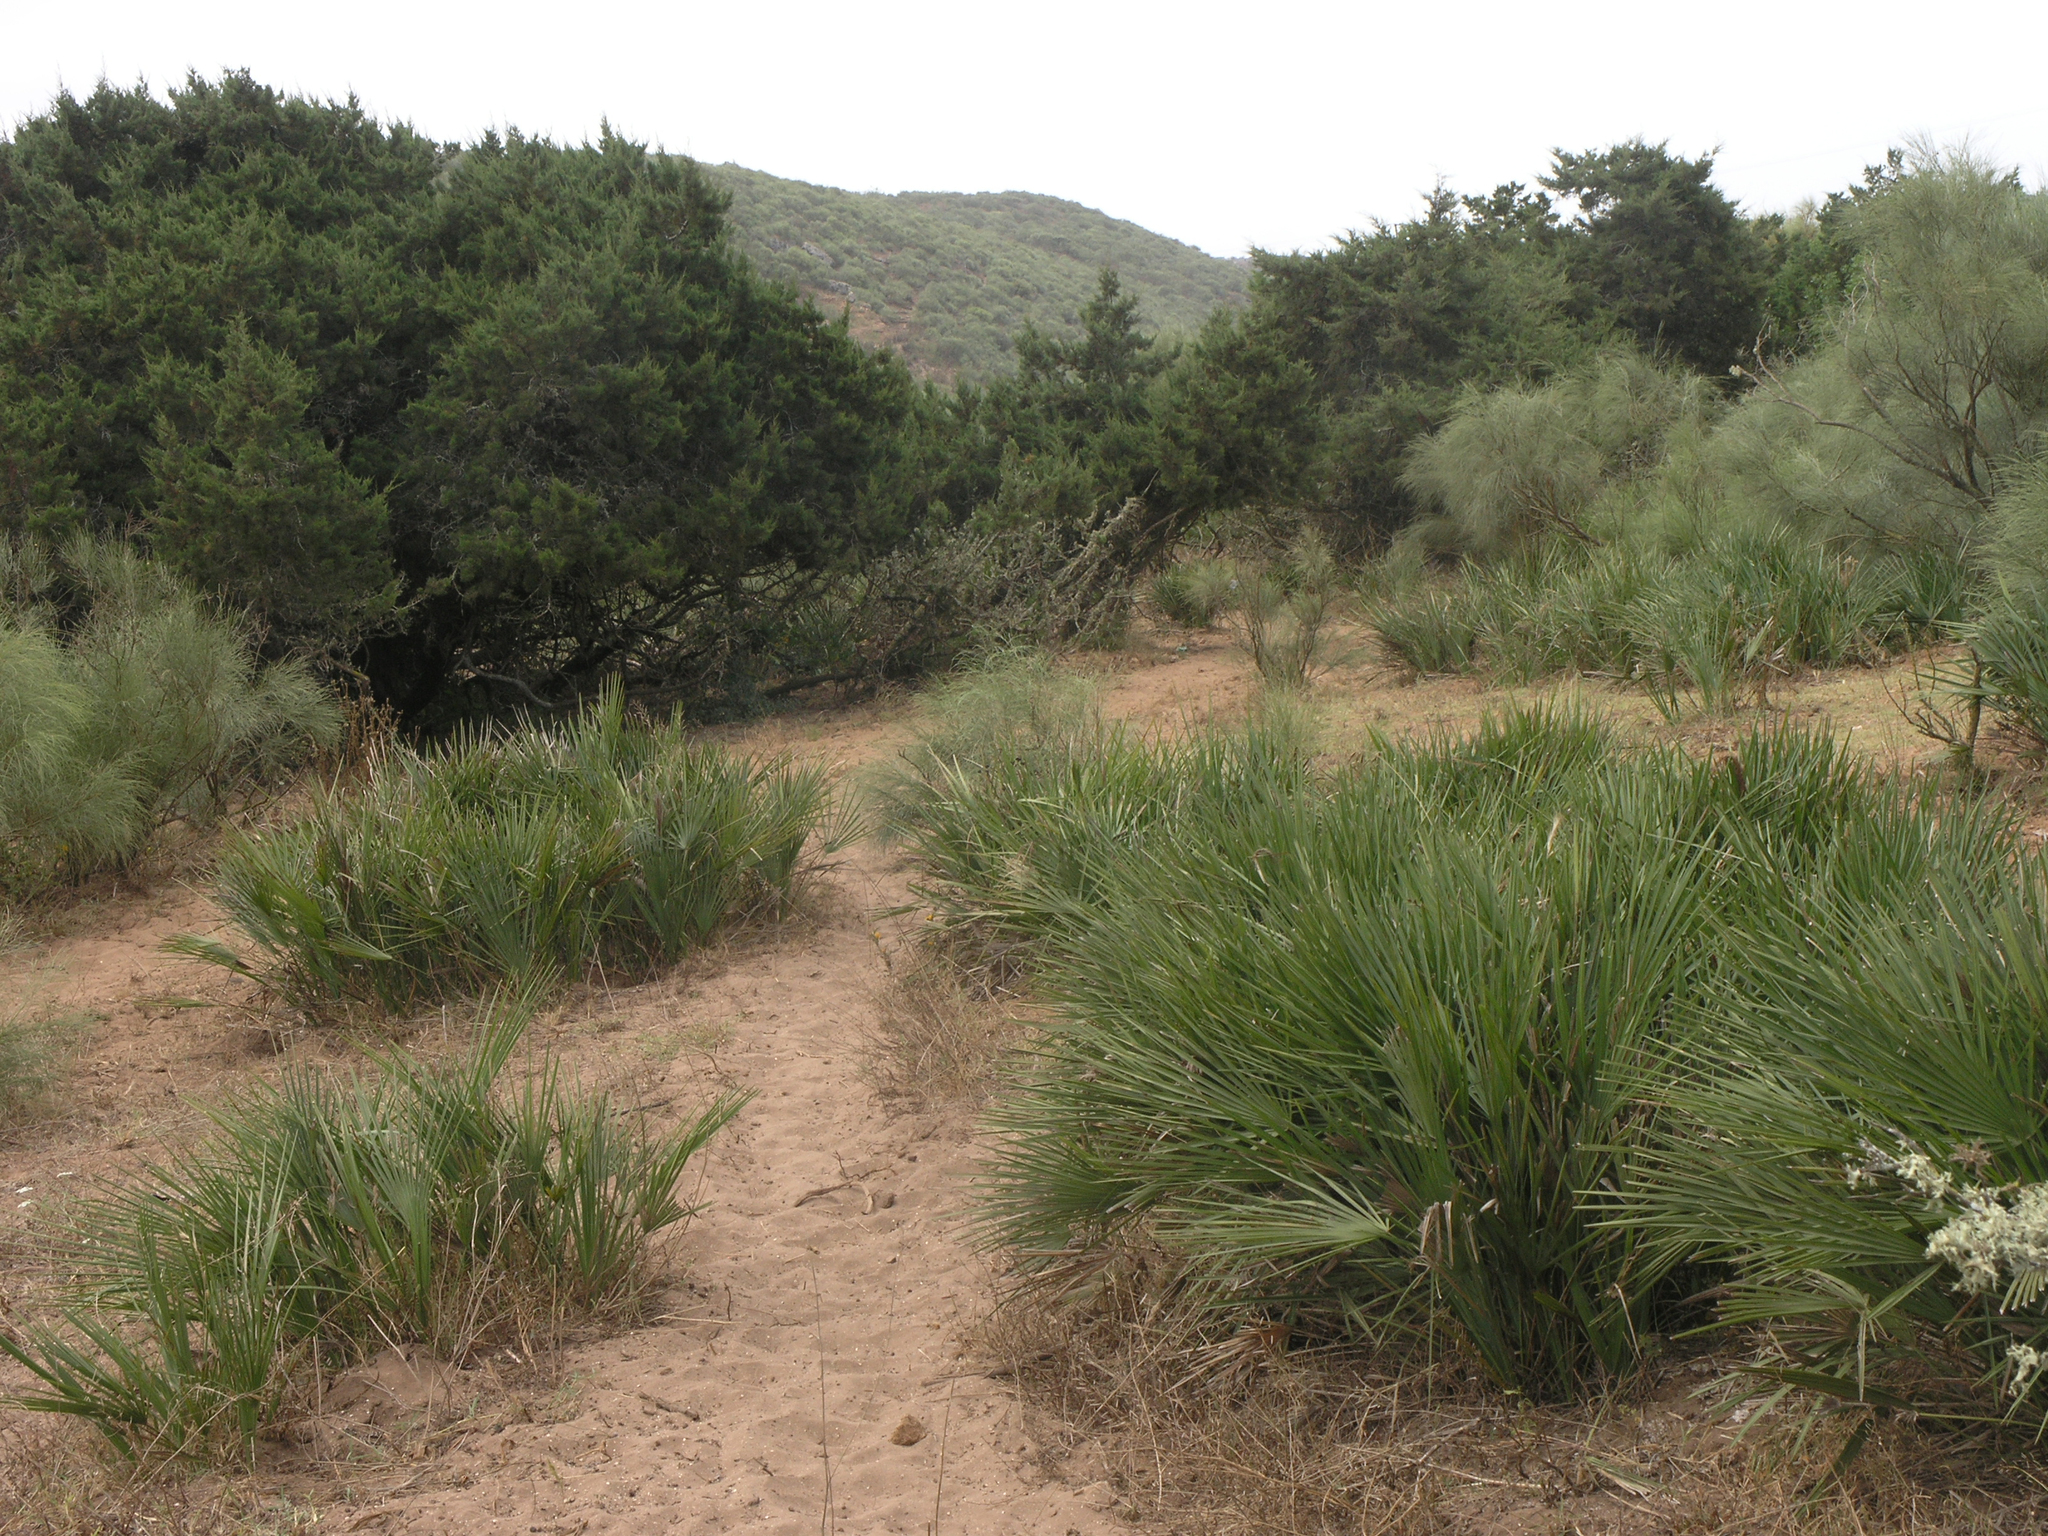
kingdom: Plantae
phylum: Tracheophyta
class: Liliopsida
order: Arecales
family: Arecaceae
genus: Chamaerops
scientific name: Chamaerops humilis
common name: Dwarf fan palm
